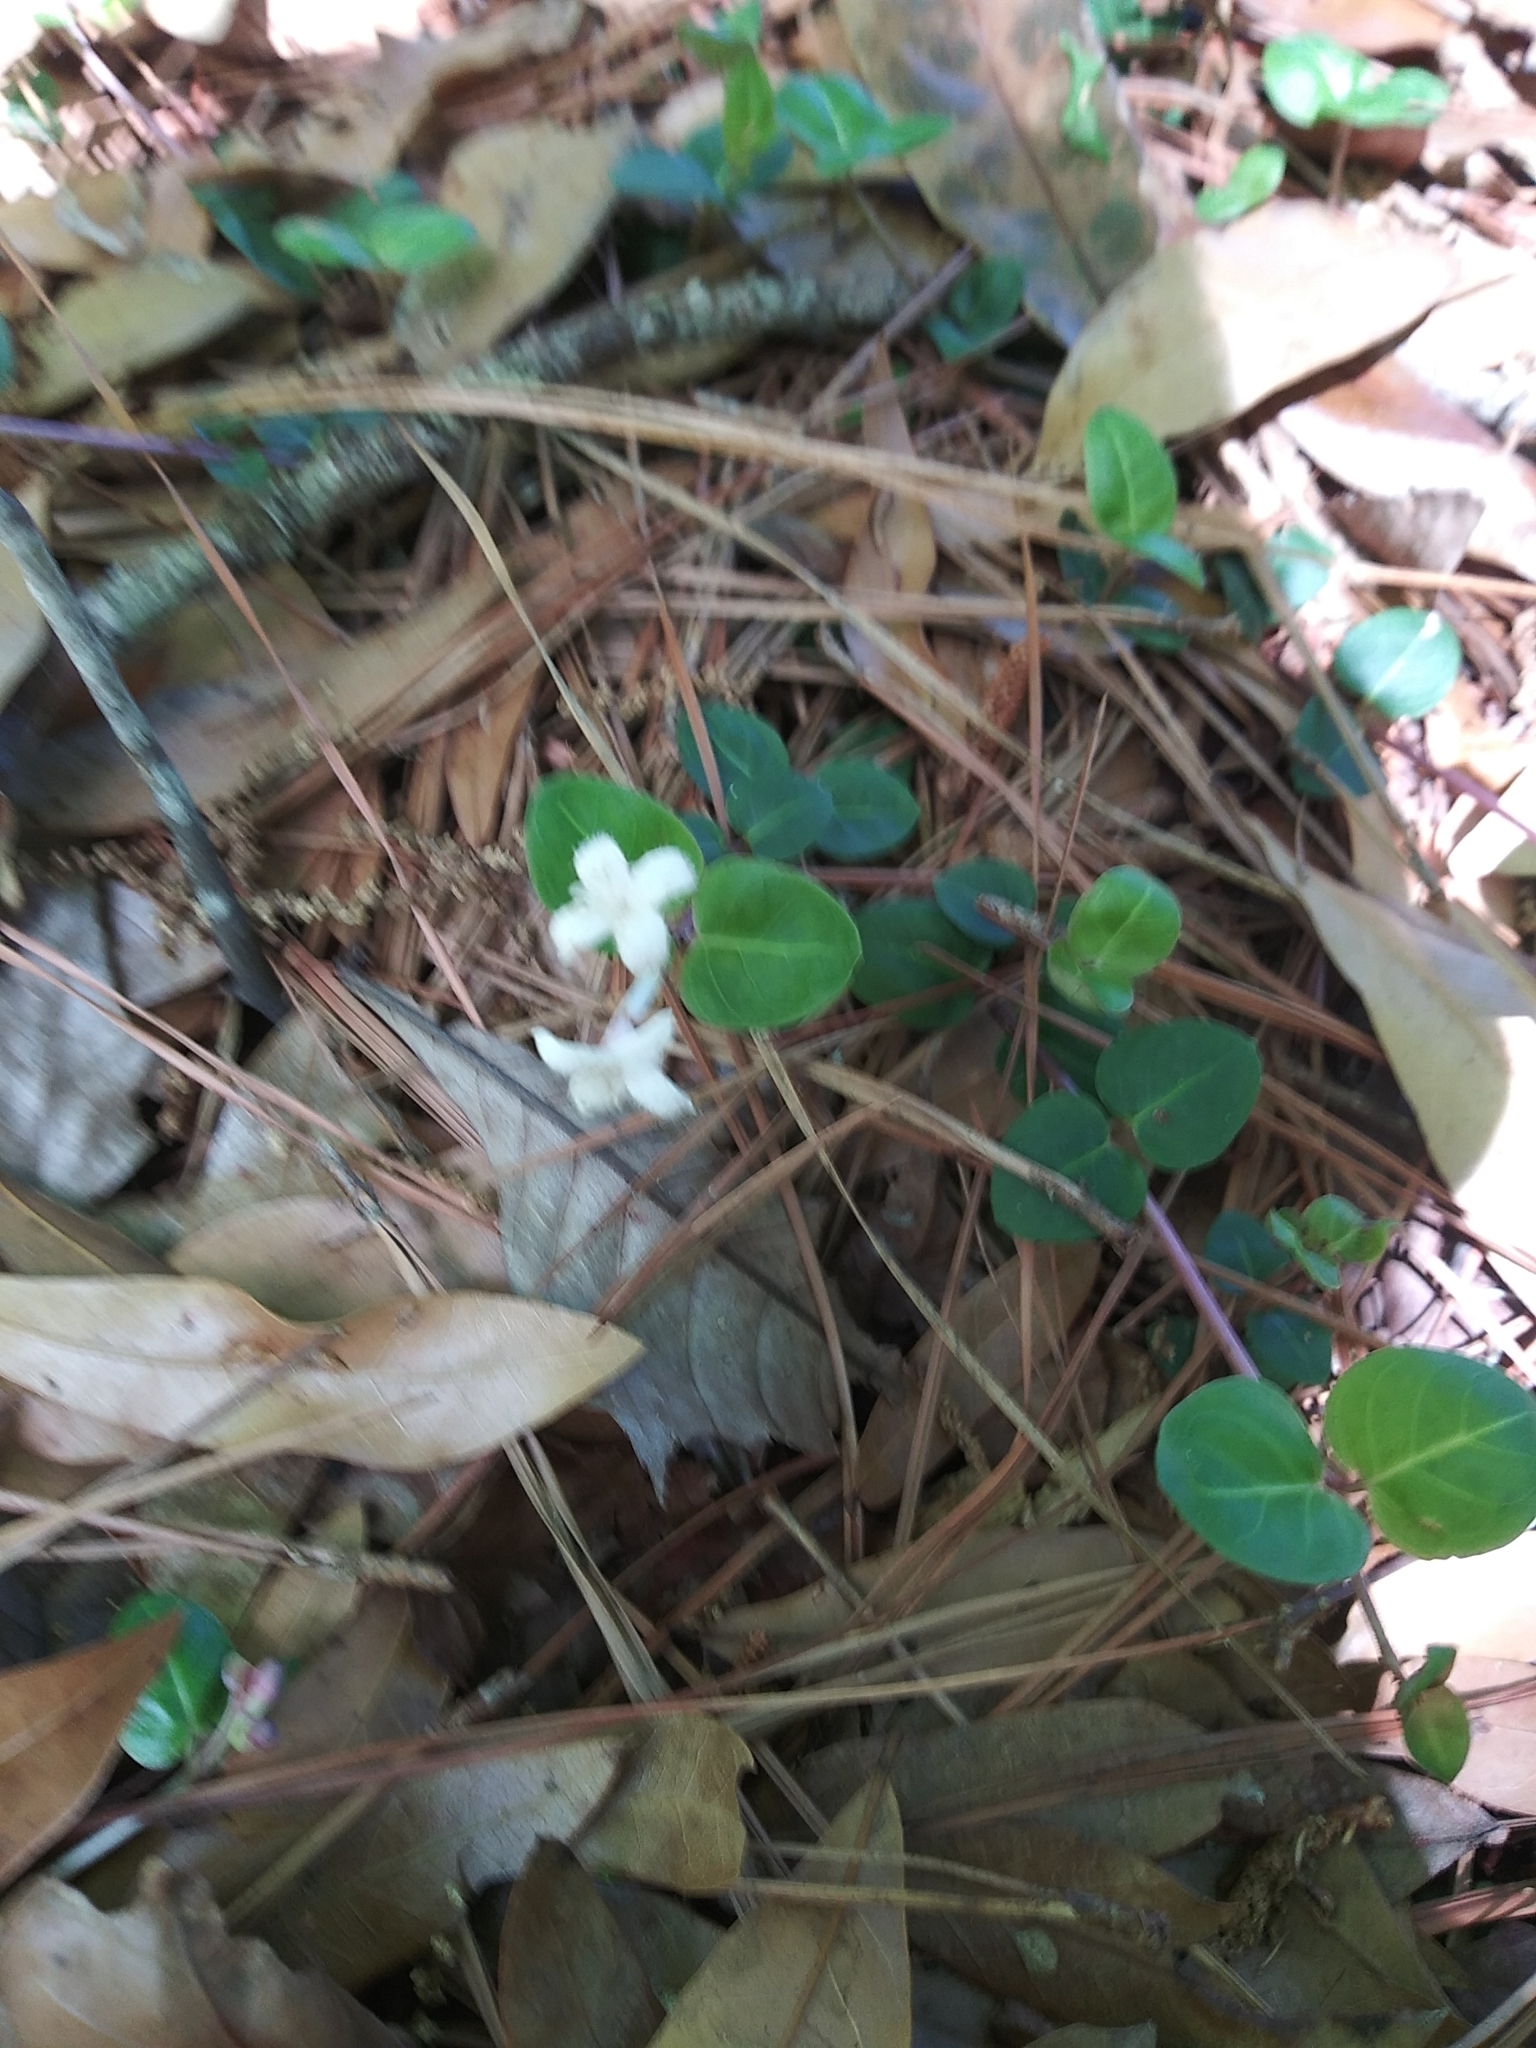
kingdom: Plantae
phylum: Tracheophyta
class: Magnoliopsida
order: Gentianales
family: Rubiaceae
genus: Mitchella
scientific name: Mitchella repens
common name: Partridge-berry
